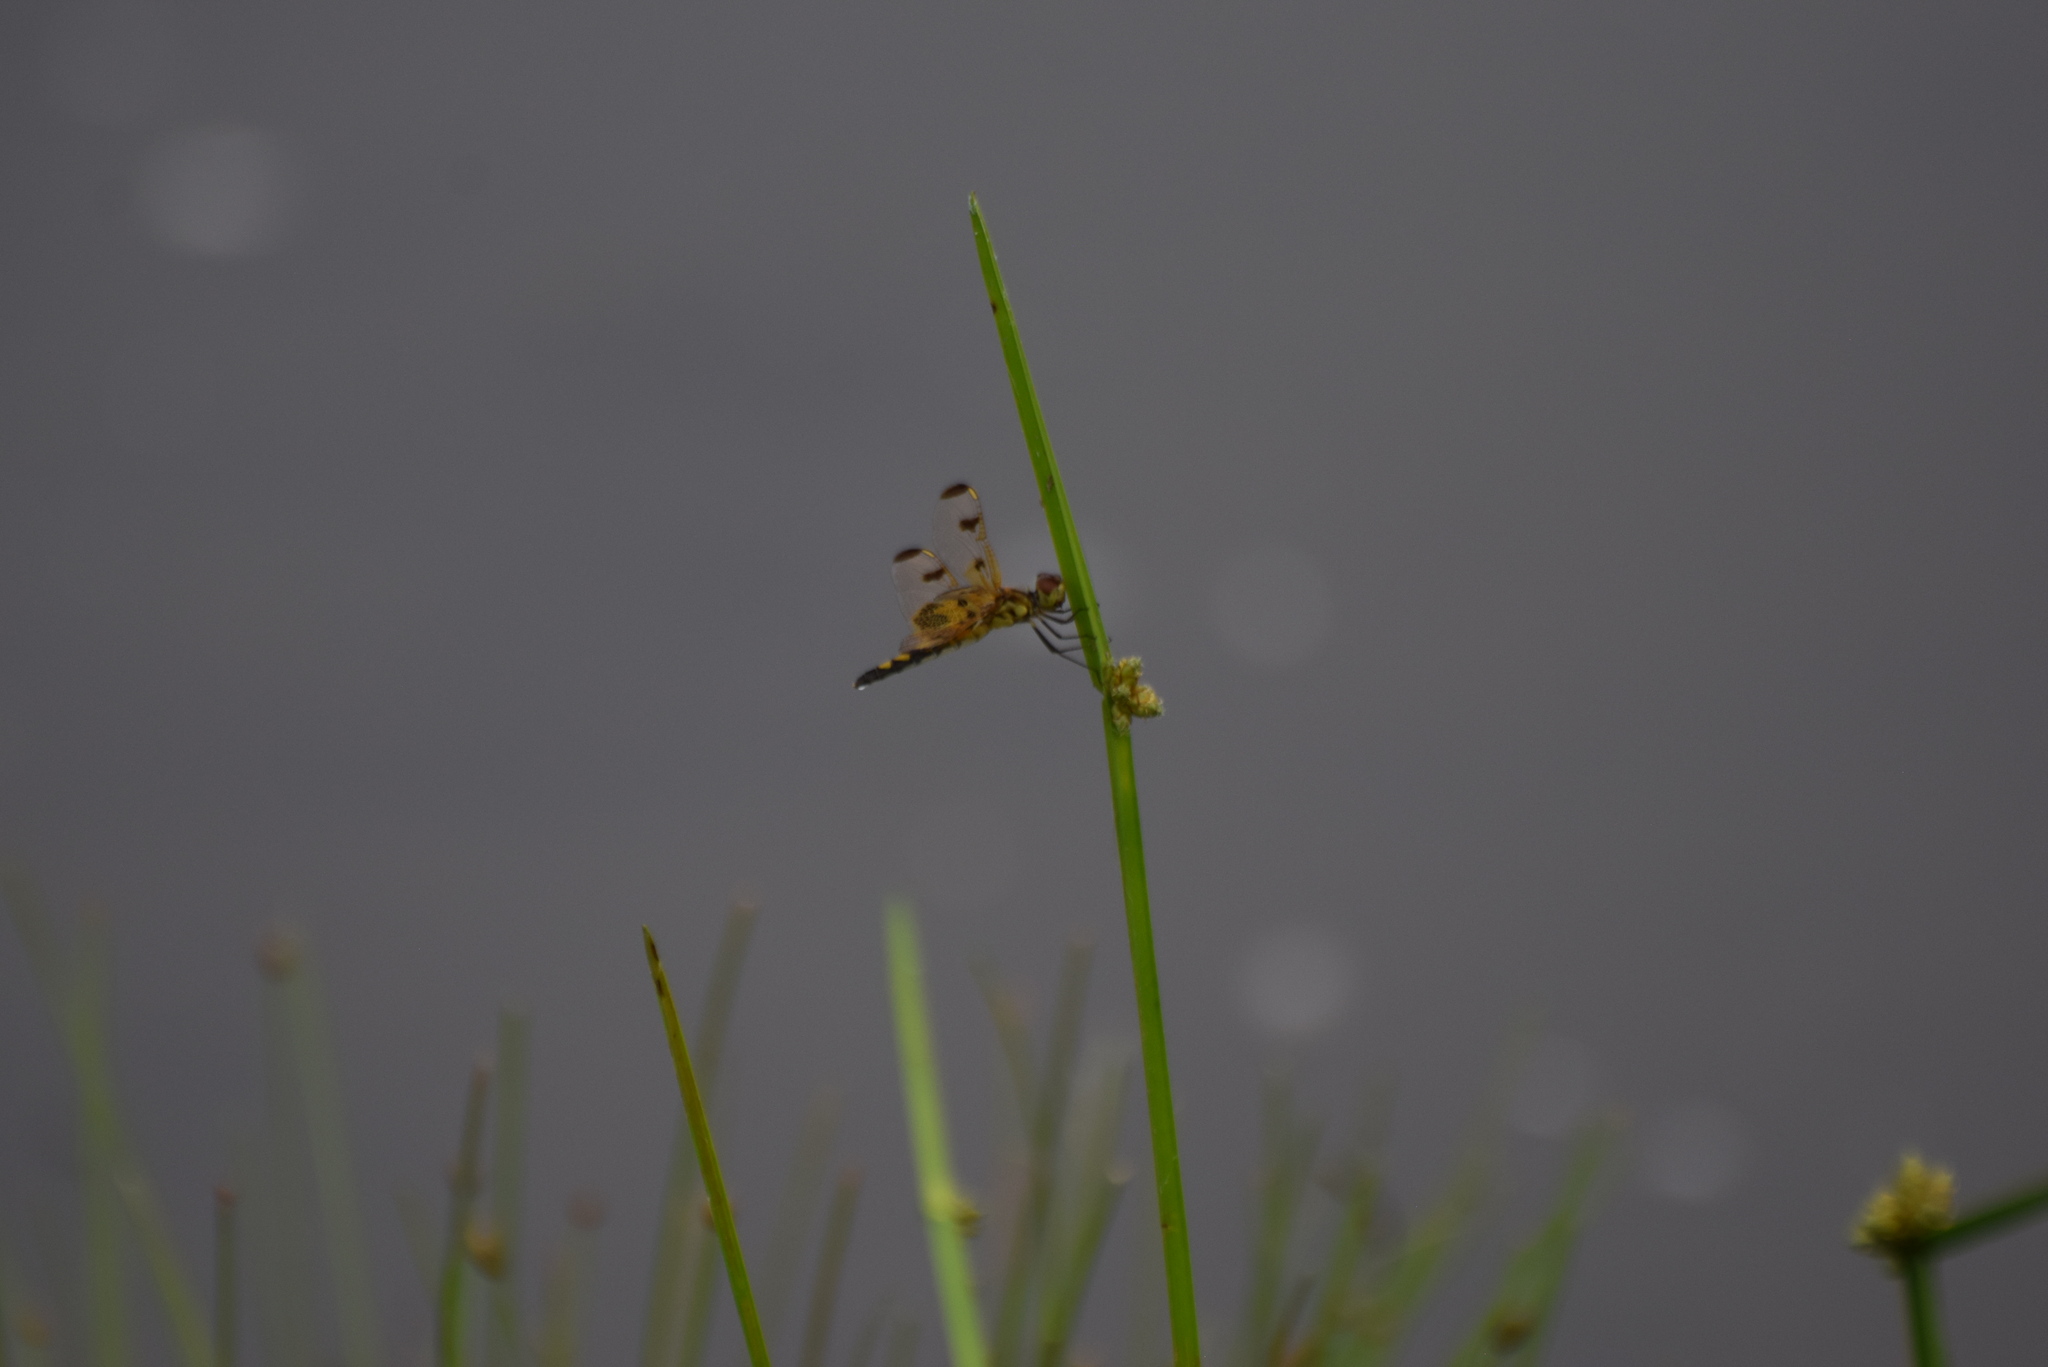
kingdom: Animalia
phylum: Arthropoda
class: Insecta
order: Odonata
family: Libellulidae
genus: Celithemis
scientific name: Celithemis elisa
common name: Calico pennant
